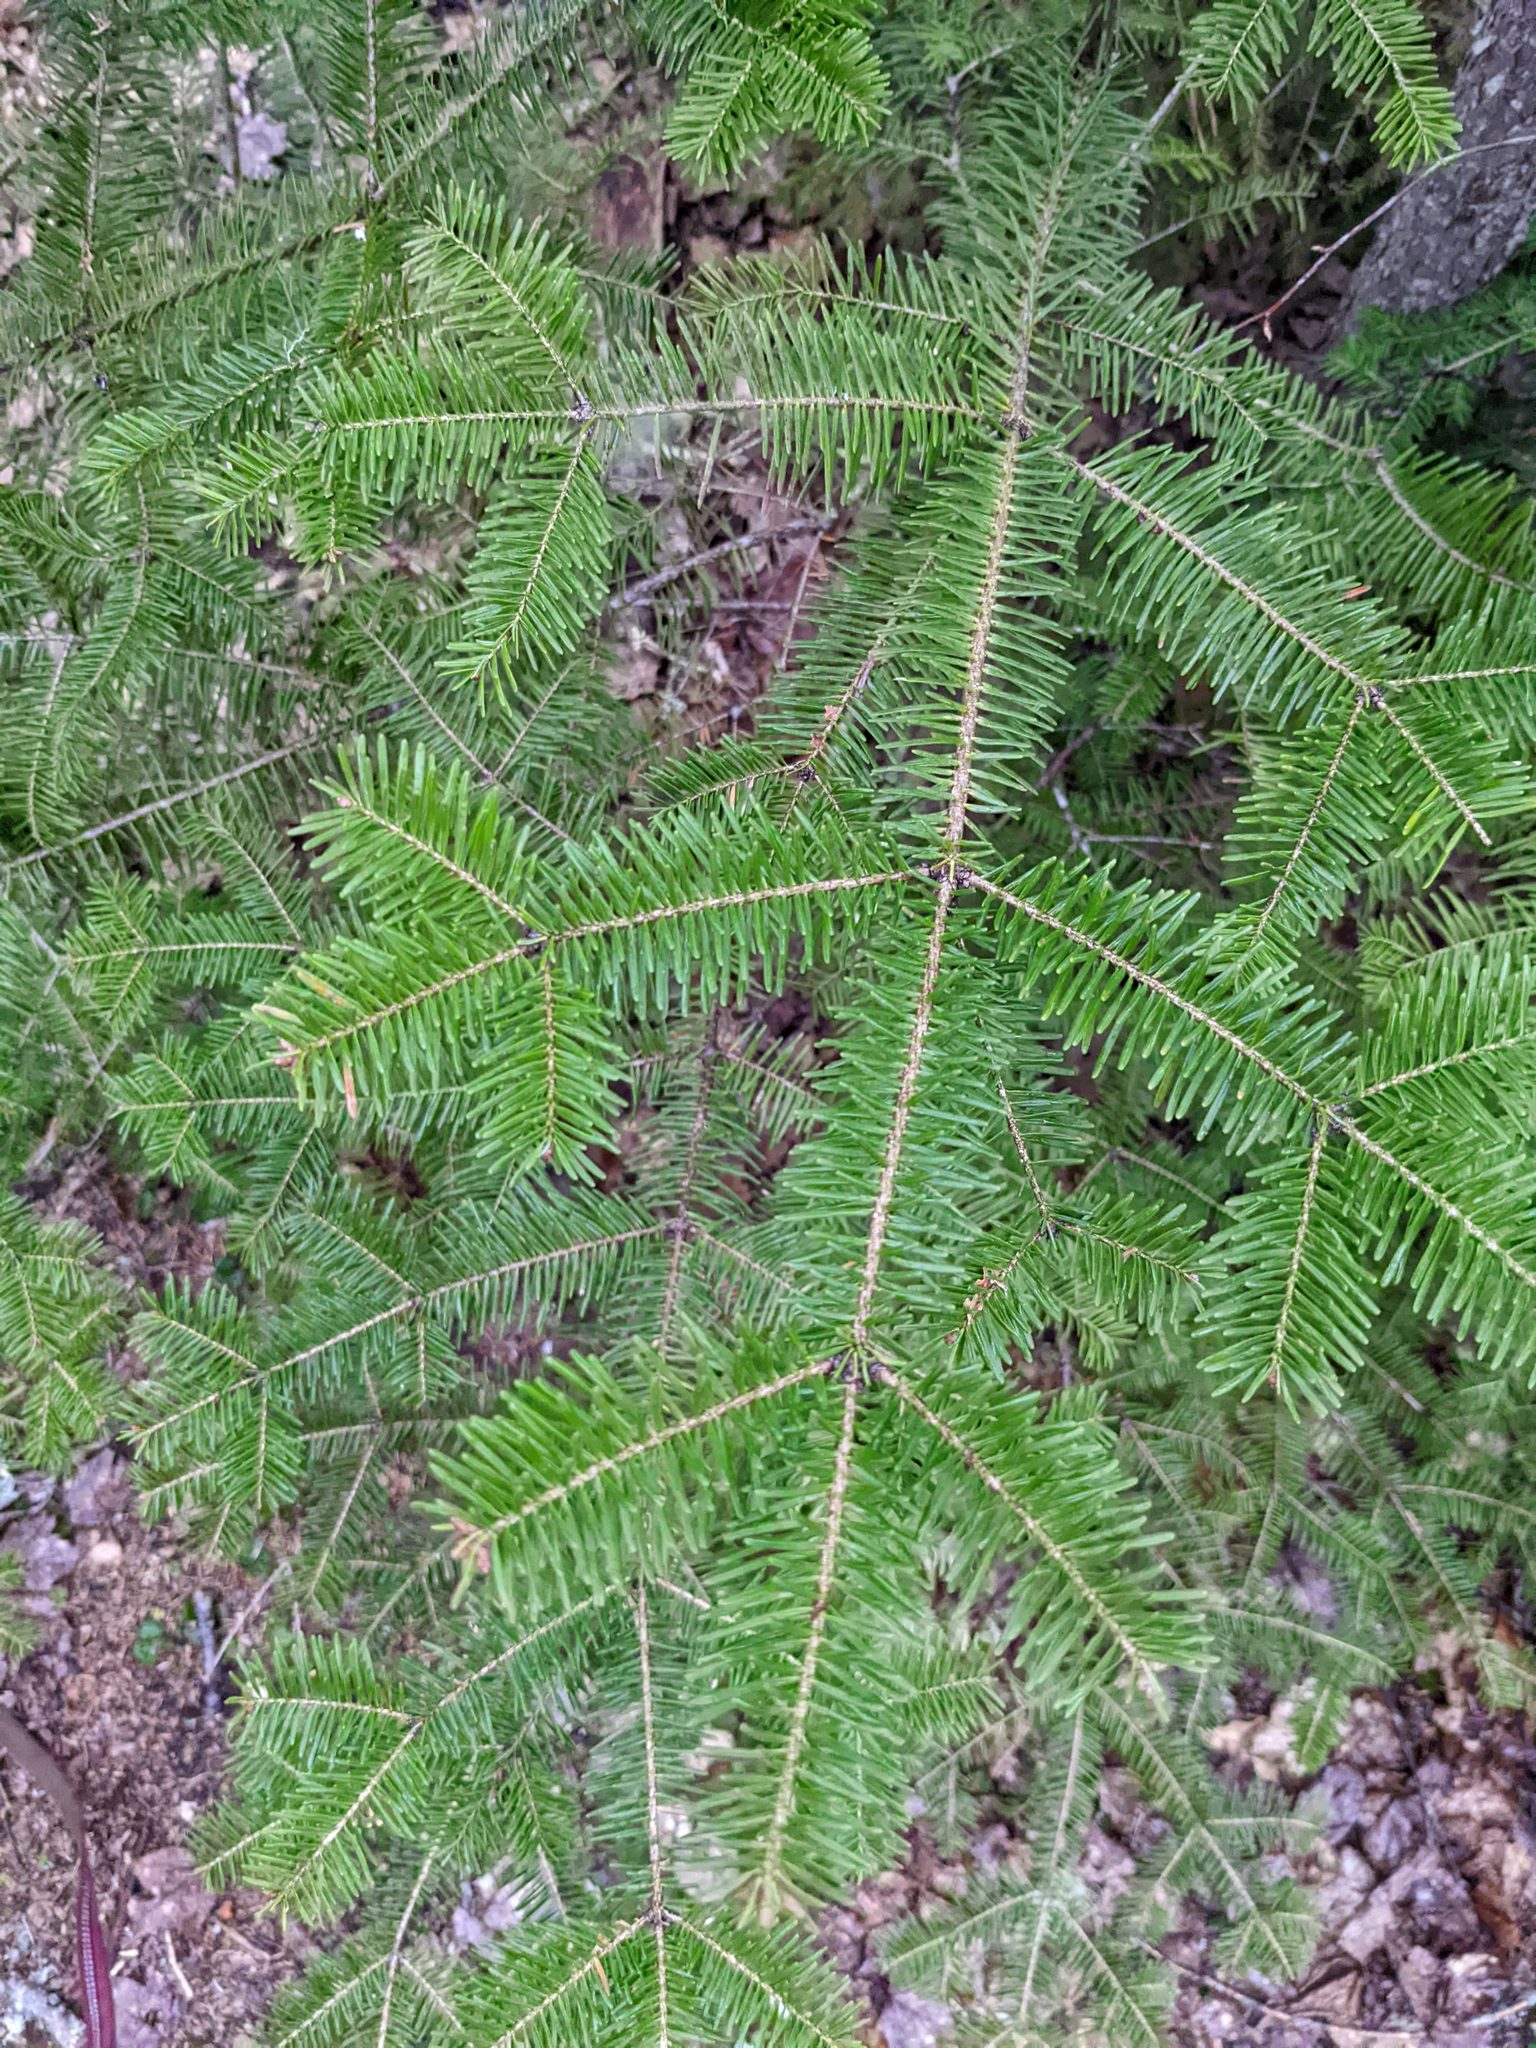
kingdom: Plantae
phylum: Tracheophyta
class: Pinopsida
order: Pinales
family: Pinaceae
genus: Abies
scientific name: Abies balsamea
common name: Balsam fir
